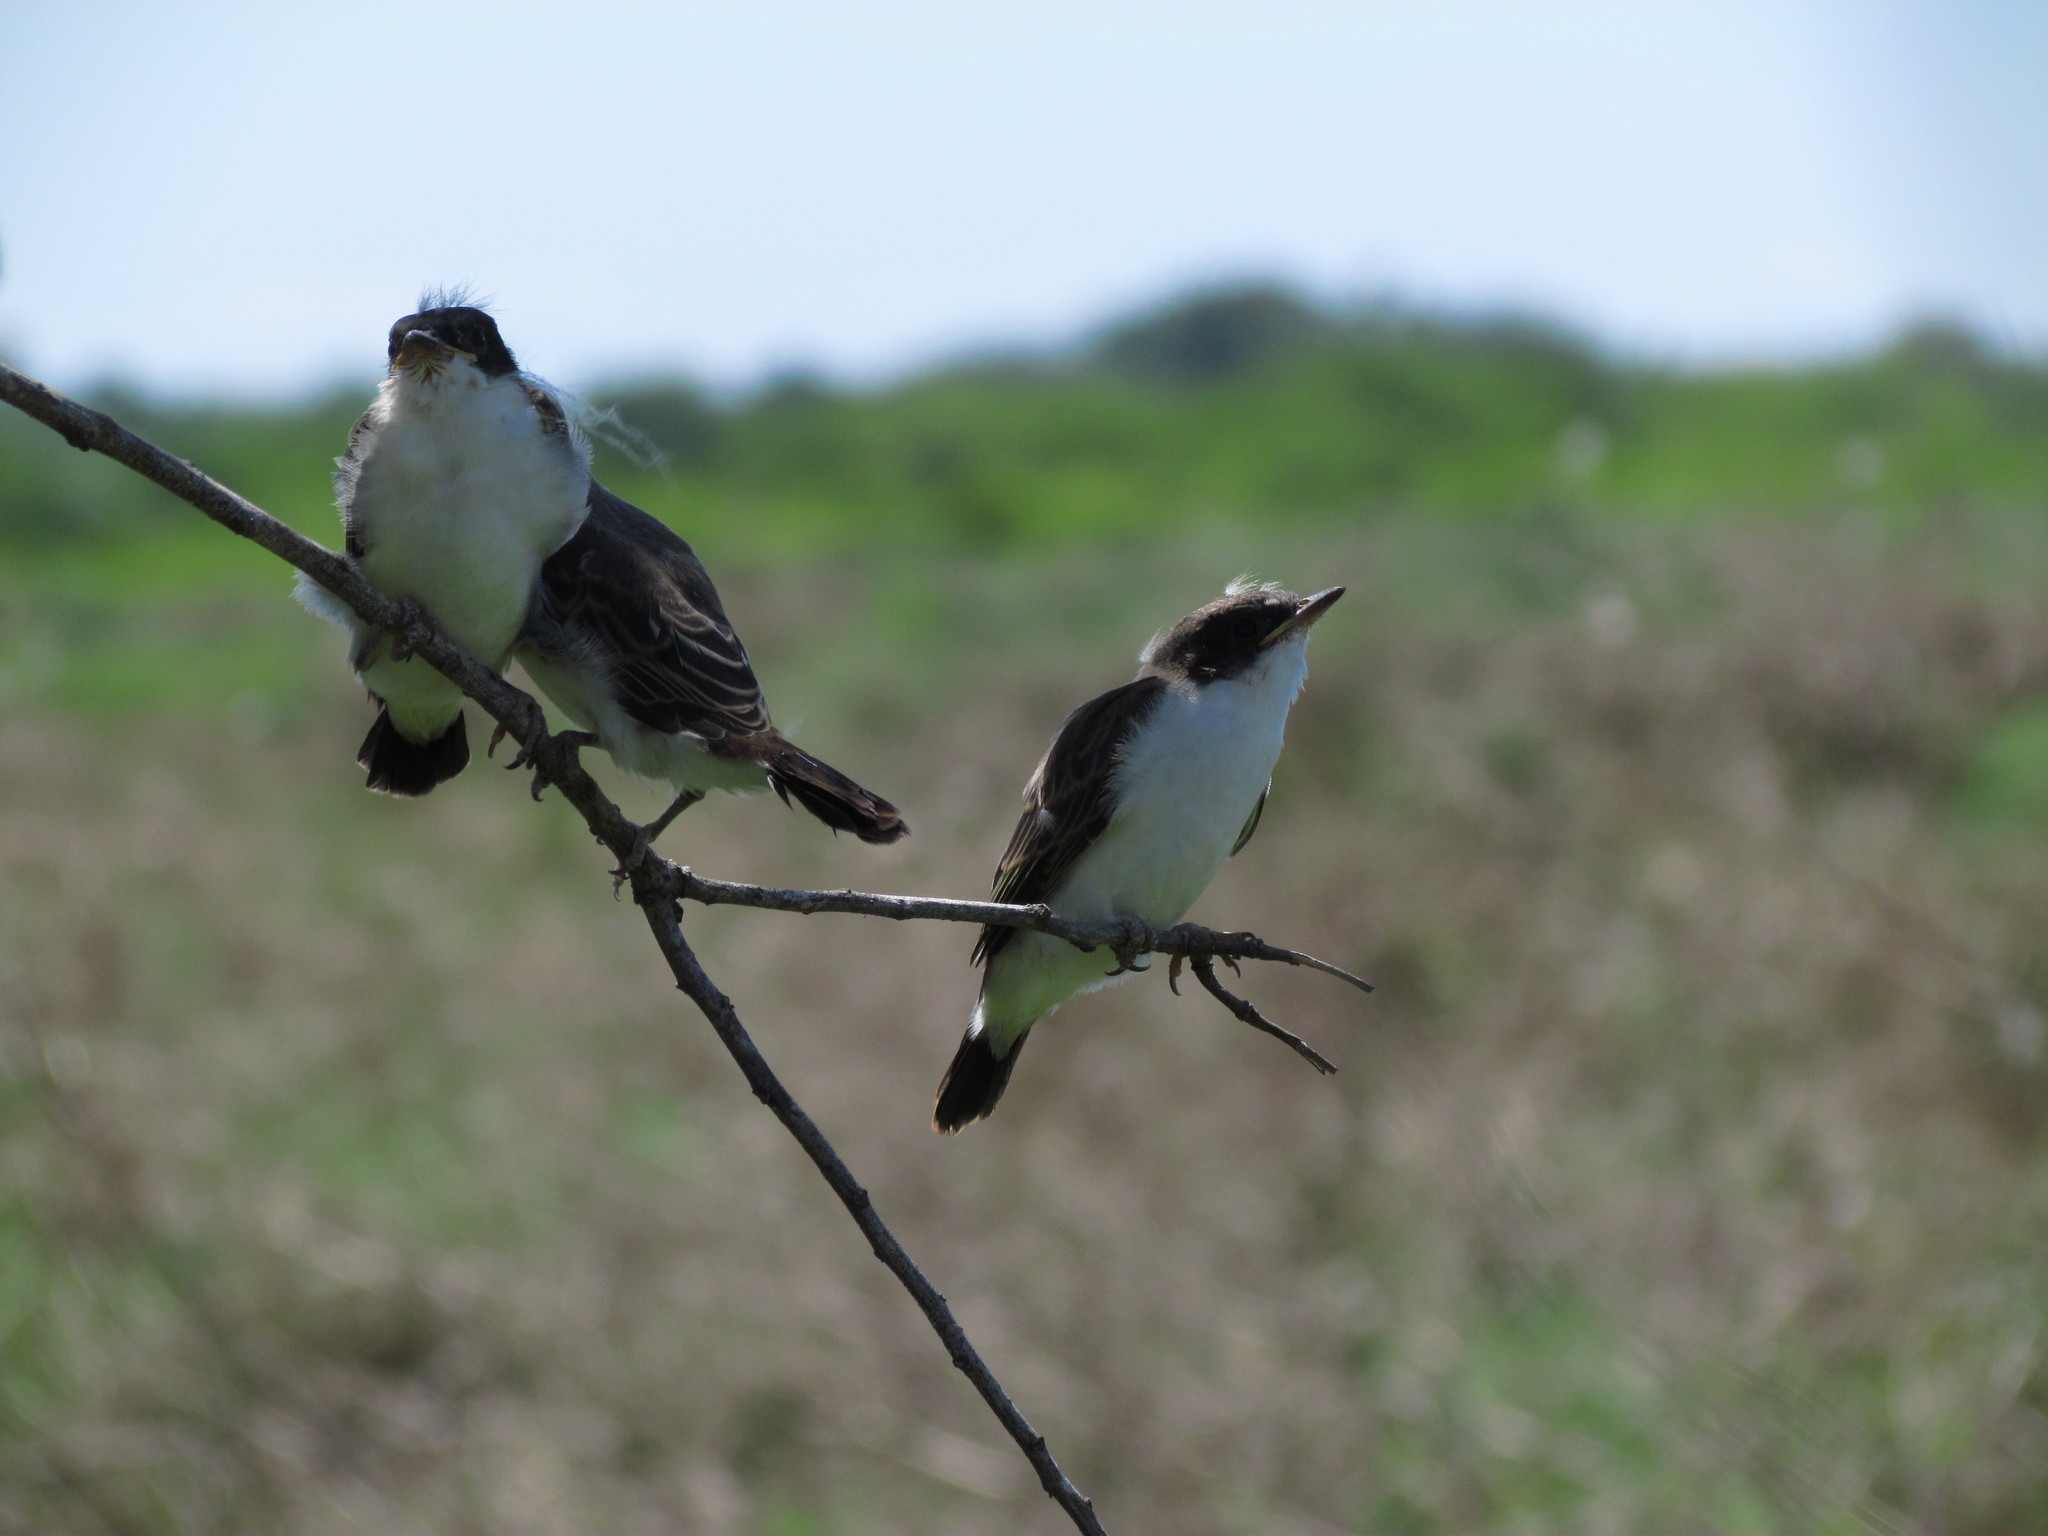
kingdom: Animalia
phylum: Chordata
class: Aves
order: Passeriformes
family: Tyrannidae
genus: Tyrannus
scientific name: Tyrannus savana
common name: Fork-tailed flycatcher
